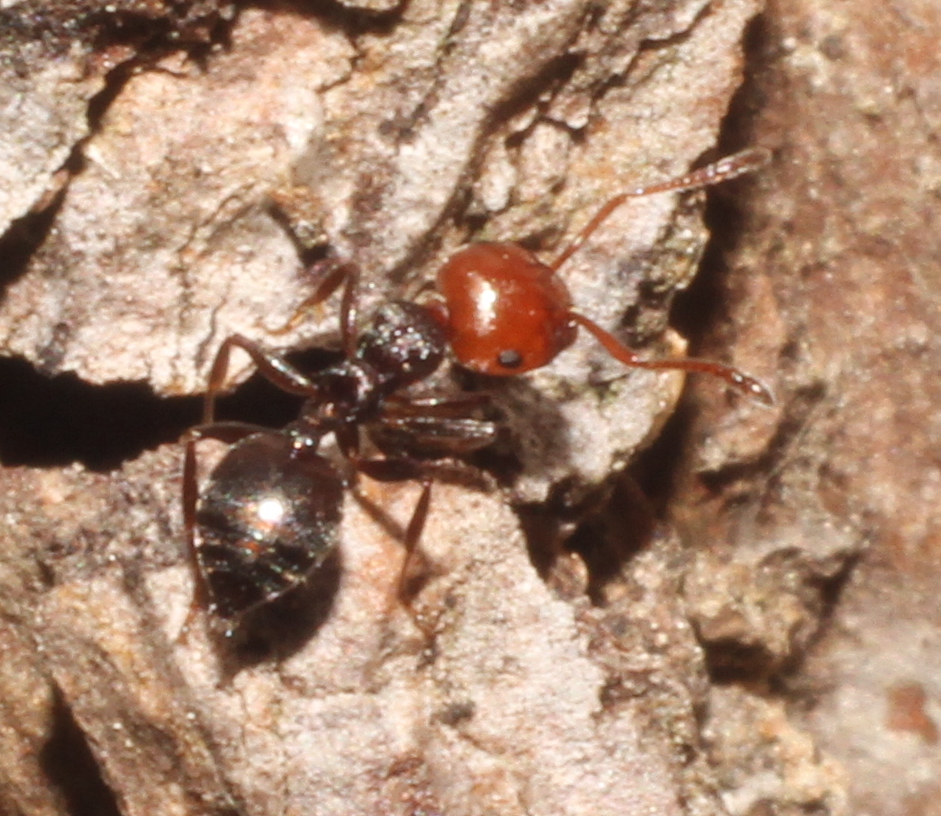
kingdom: Animalia
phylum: Arthropoda
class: Insecta
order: Hymenoptera
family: Formicidae
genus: Crematogaster
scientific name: Crematogaster scutellaris
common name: Fourmi du liège
